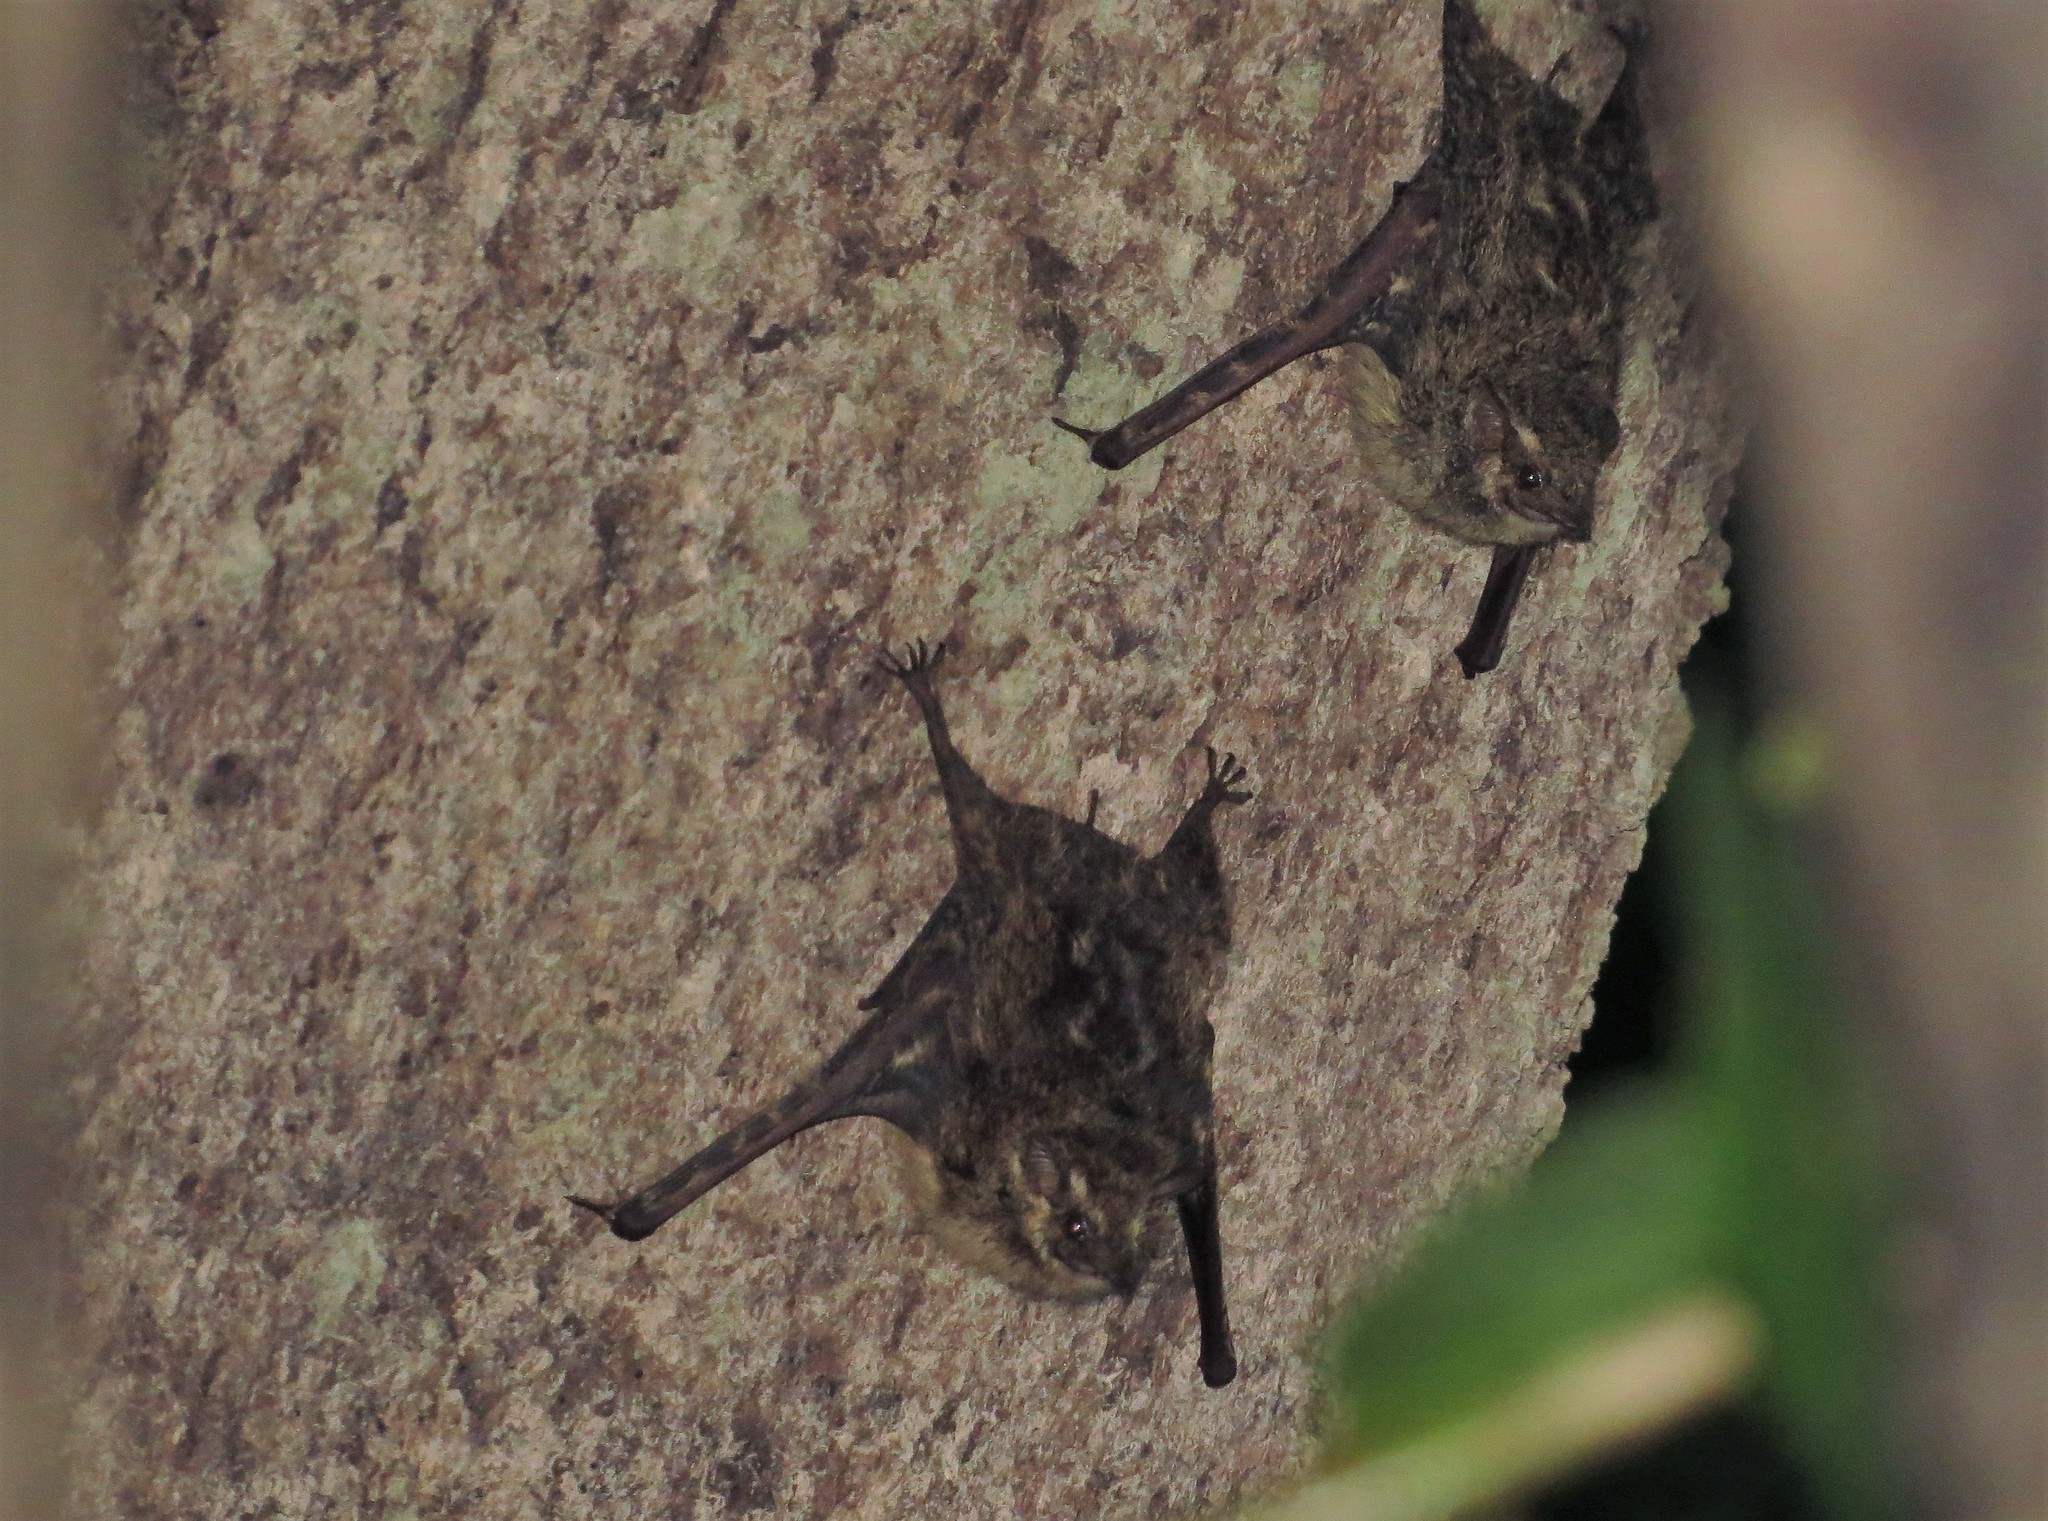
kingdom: Animalia
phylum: Chordata
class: Mammalia
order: Chiroptera
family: Emballonuridae
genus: Rhynchonycteris
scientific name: Rhynchonycteris naso
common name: Proboscis bat
